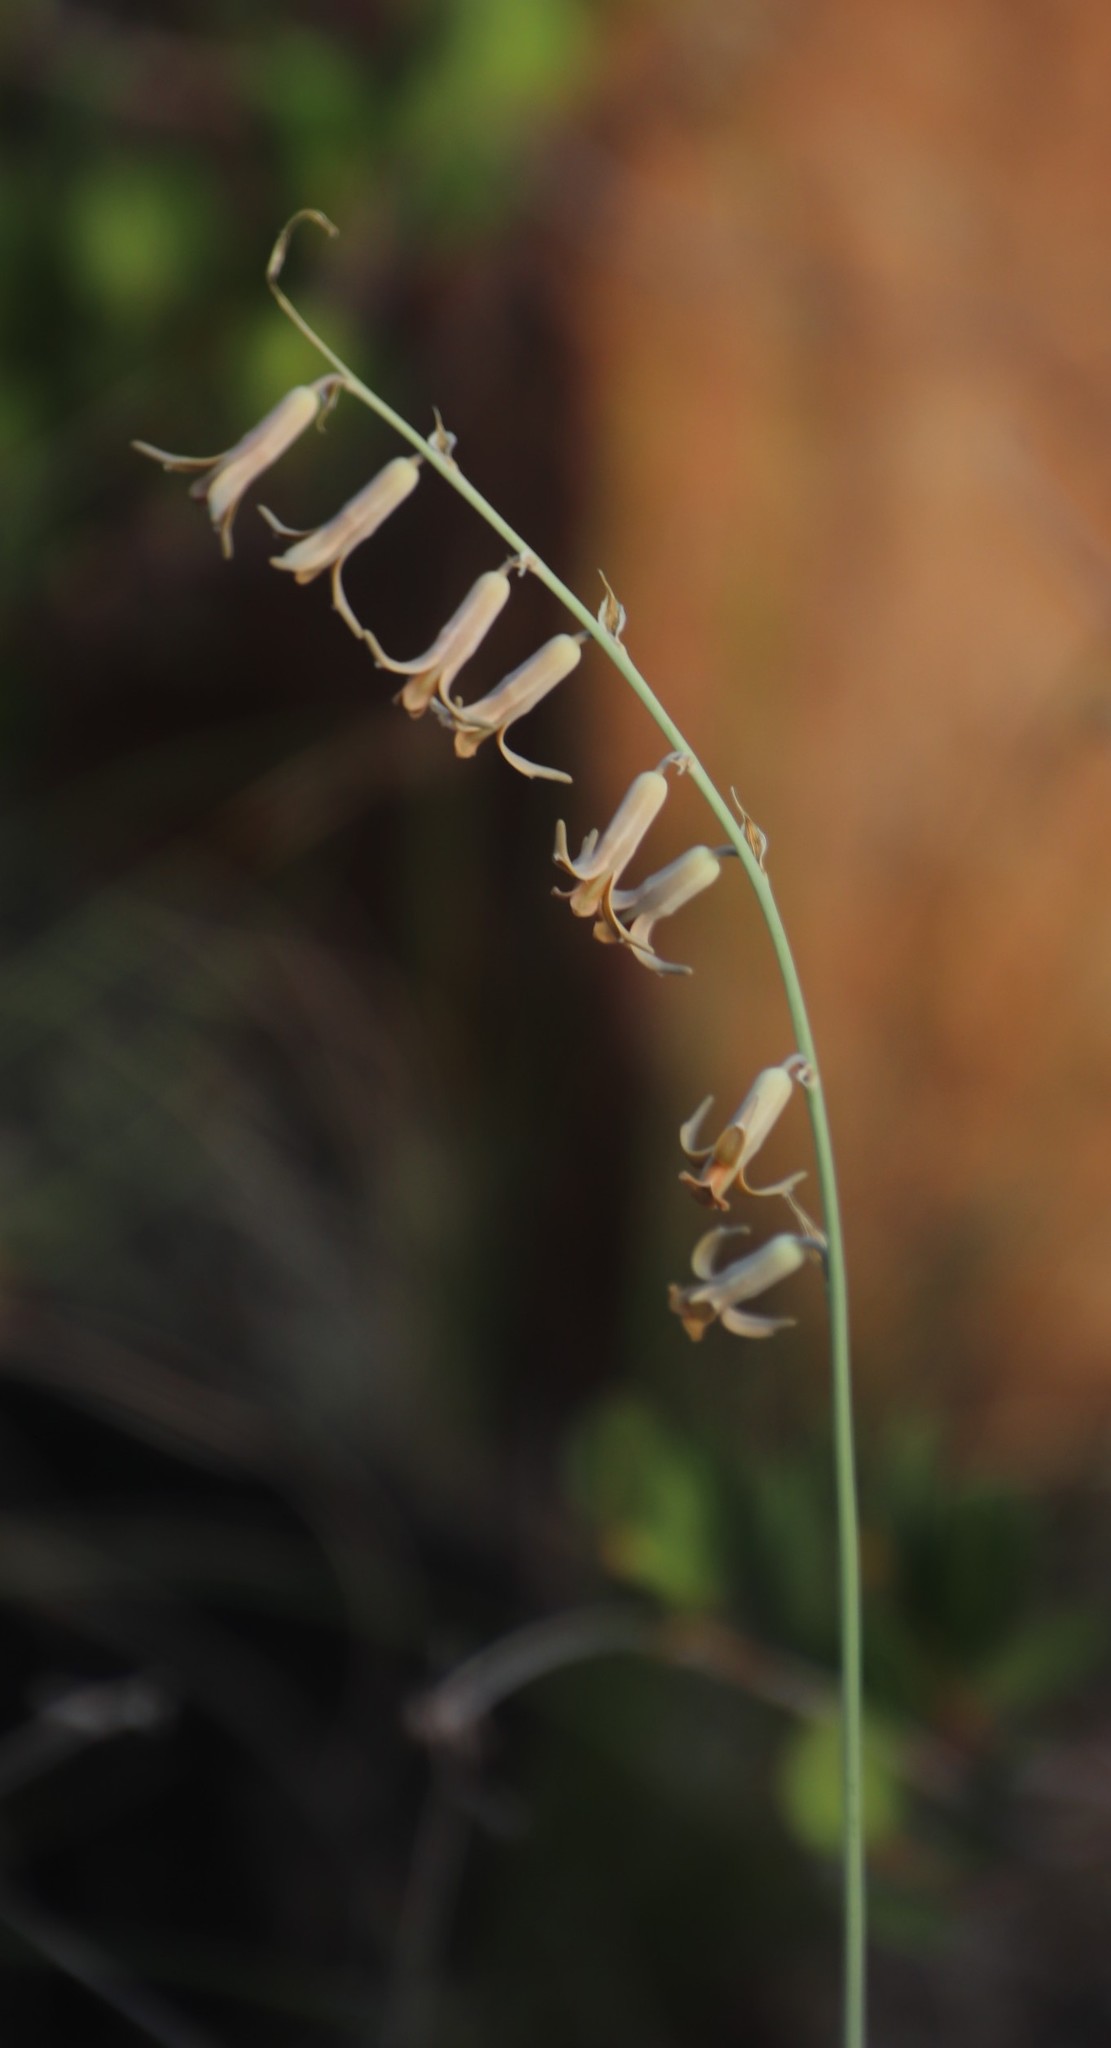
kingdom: Plantae
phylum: Tracheophyta
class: Liliopsida
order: Asparagales
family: Asparagaceae
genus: Dipcadi
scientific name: Dipcadi ciliare
